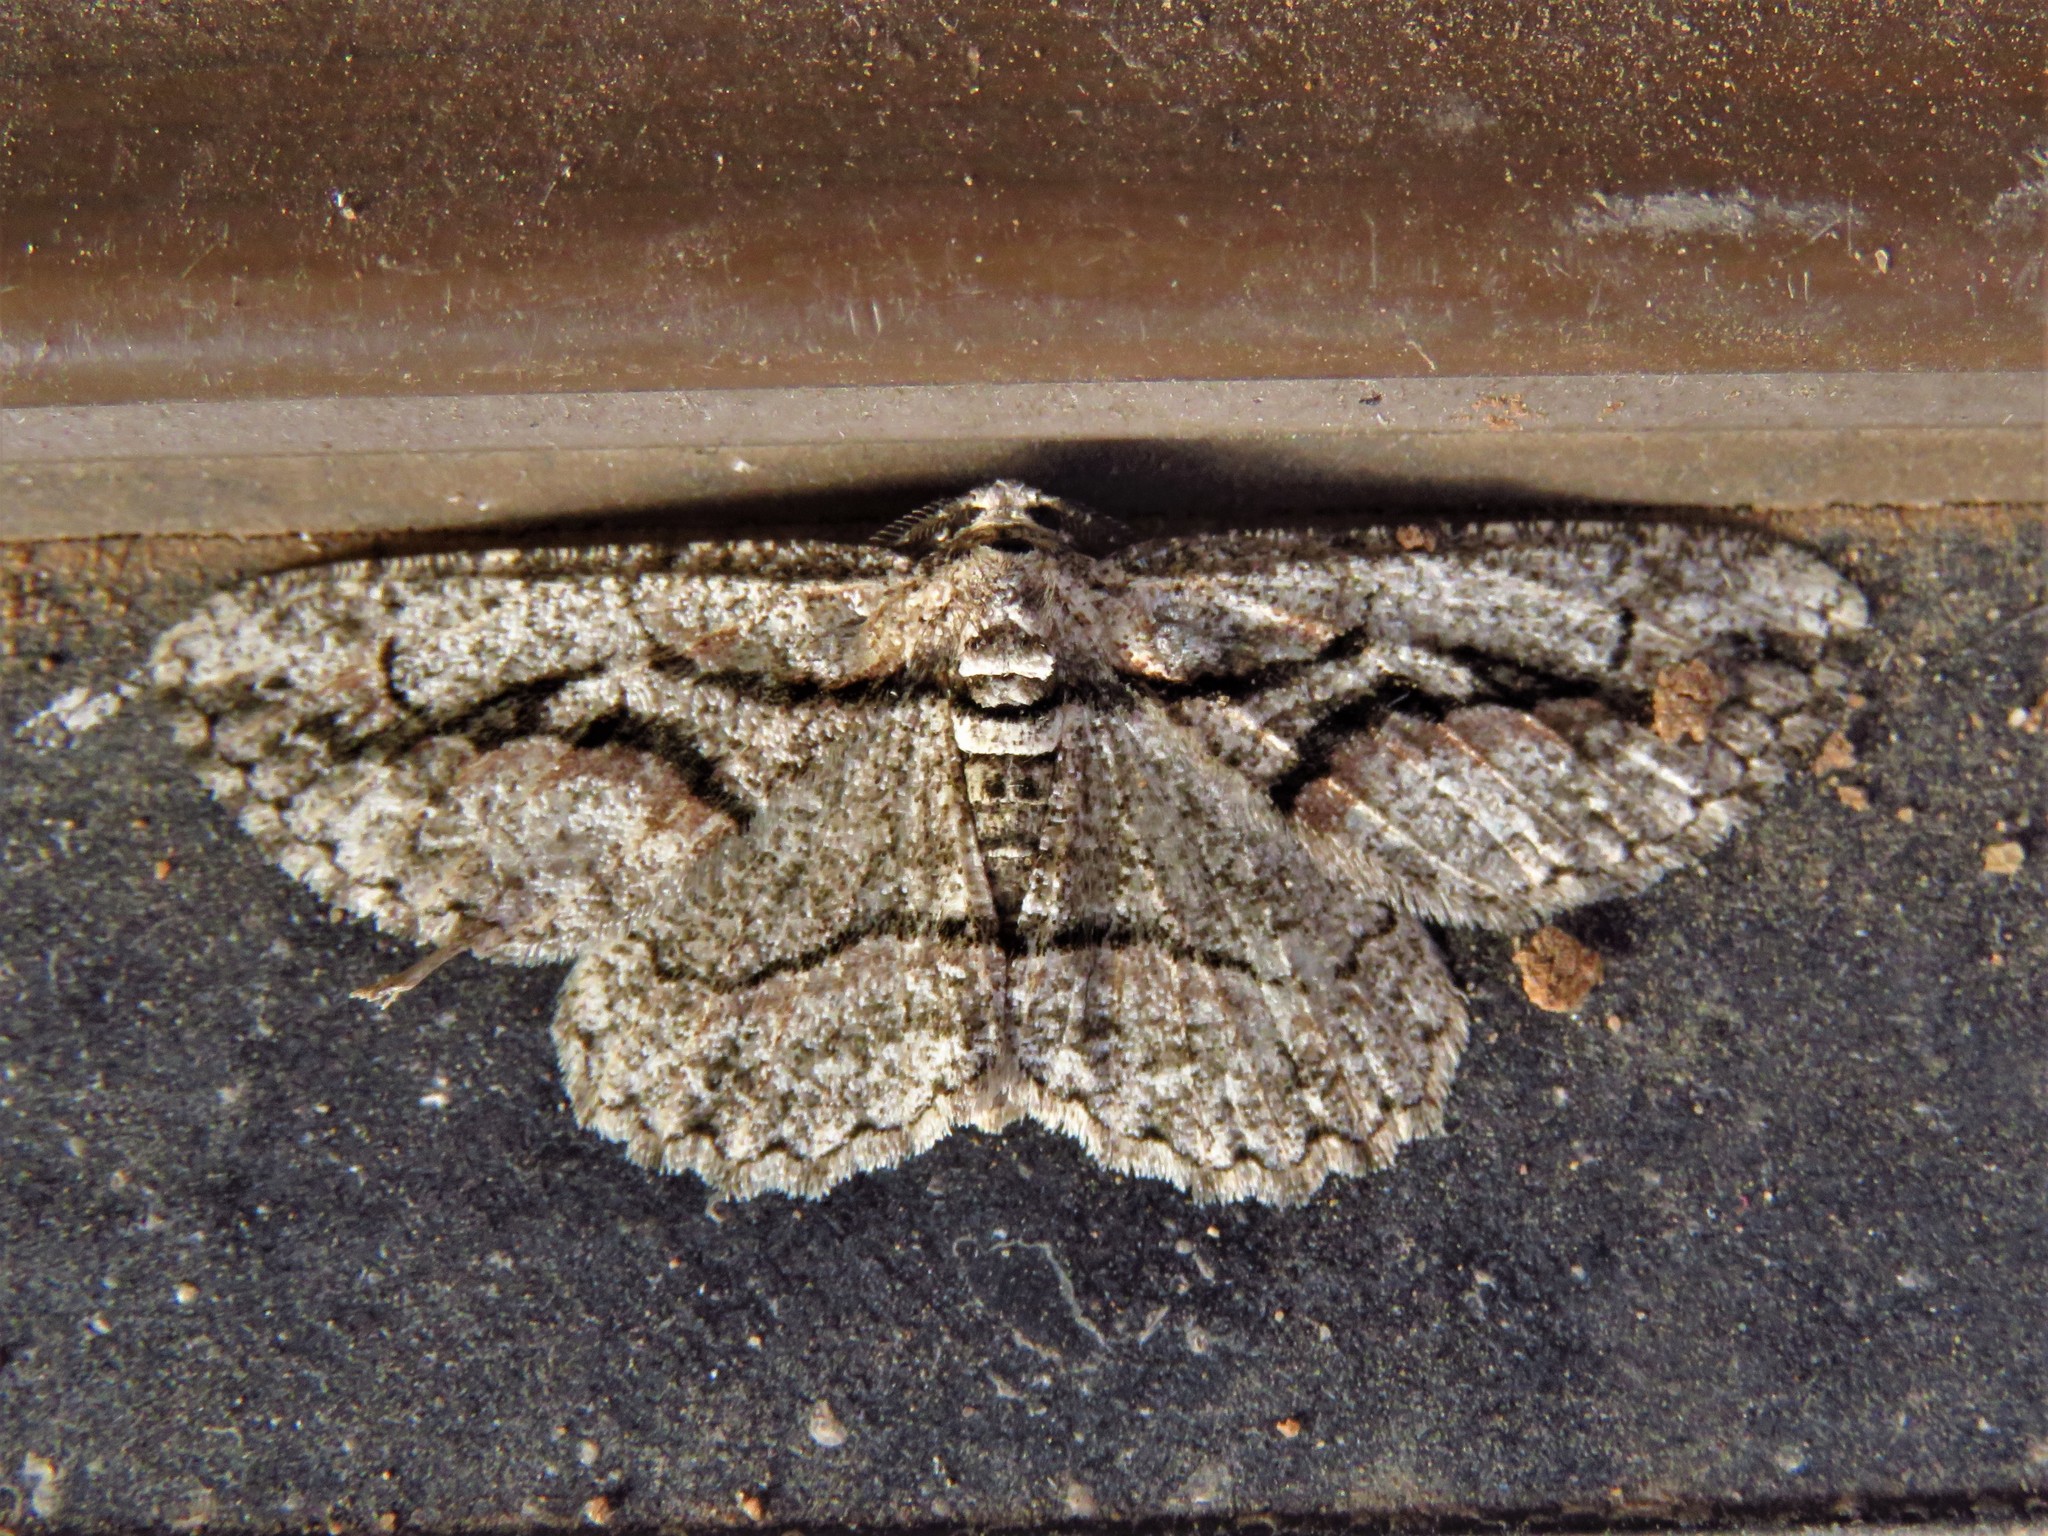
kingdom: Animalia
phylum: Arthropoda
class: Insecta
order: Lepidoptera
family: Geometridae
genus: Anavitrinella
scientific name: Anavitrinella atristrigaria
